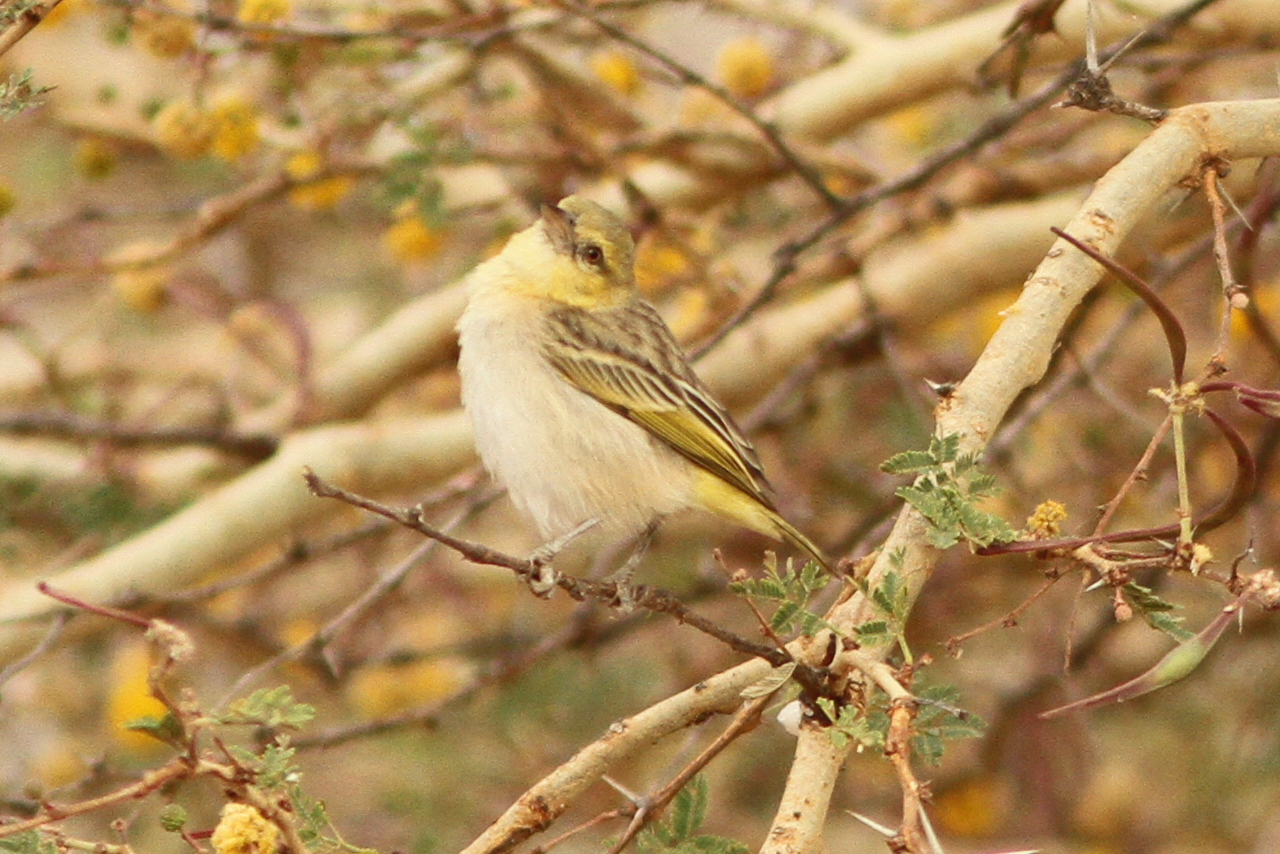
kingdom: Animalia
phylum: Chordata
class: Aves
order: Passeriformes
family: Ploceidae
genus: Ploceus
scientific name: Ploceus luteolus
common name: Little weaver
